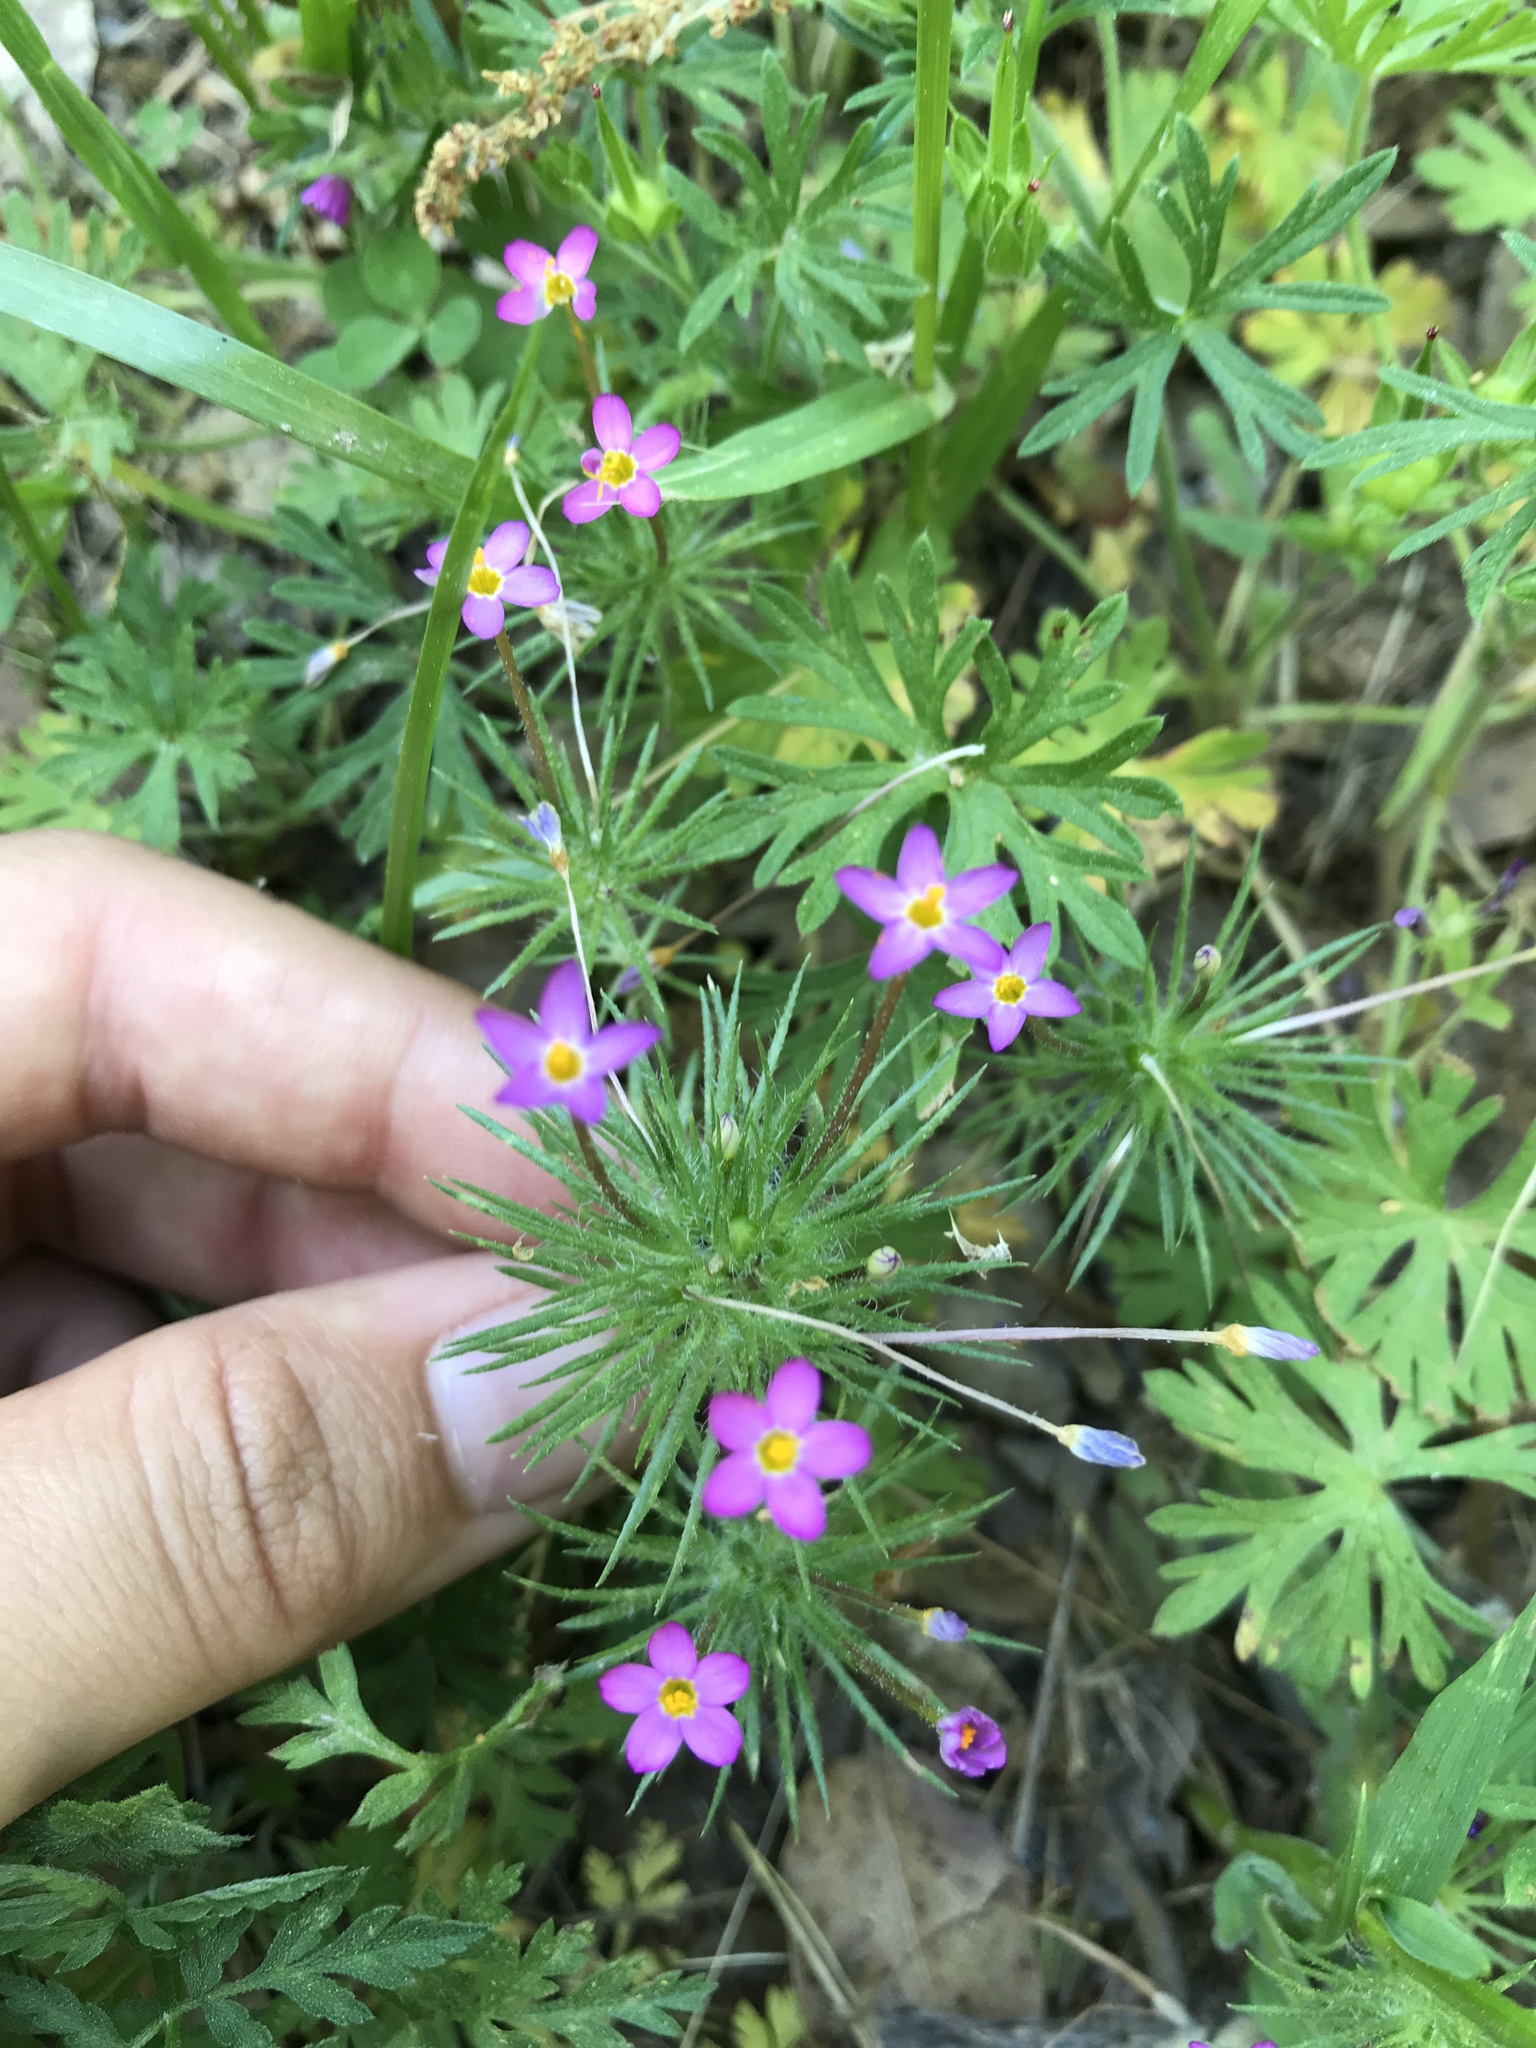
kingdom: Plantae
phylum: Tracheophyta
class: Magnoliopsida
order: Ericales
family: Polemoniaceae
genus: Leptosiphon
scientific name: Leptosiphon bicolor
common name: True babystars
